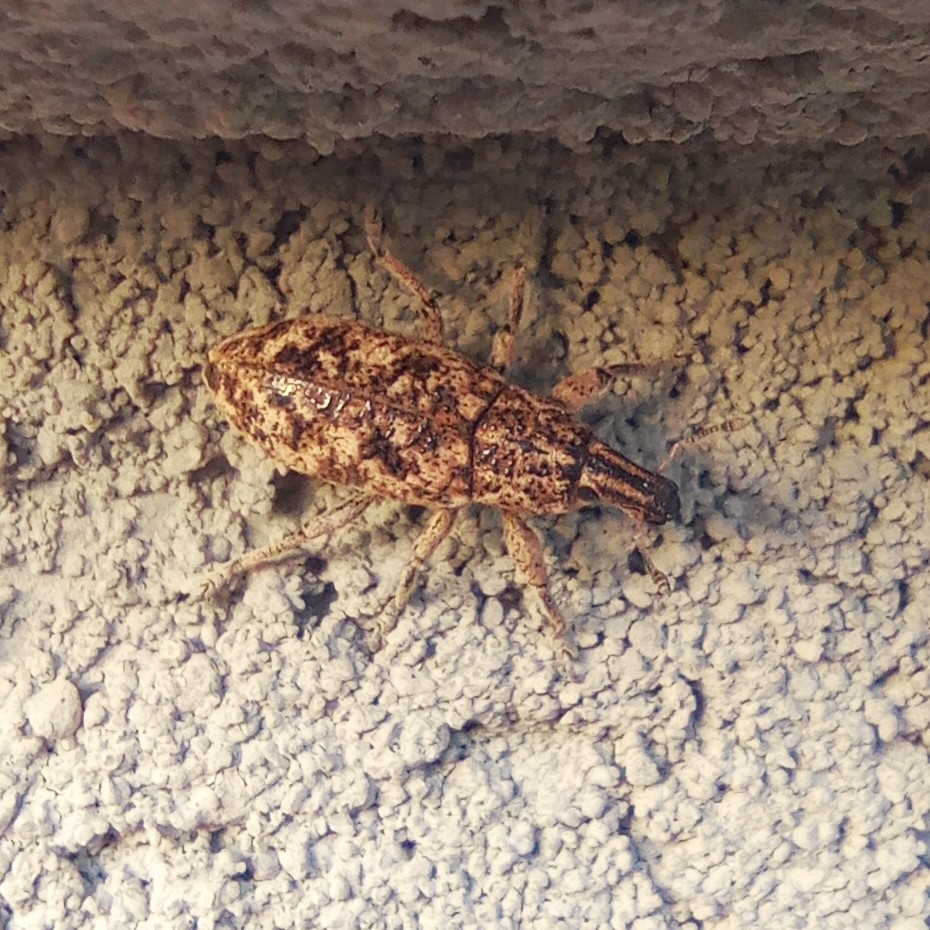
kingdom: Animalia
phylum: Arthropoda
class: Insecta
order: Coleoptera
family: Curculionidae
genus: Cyphocleonus
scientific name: Cyphocleonus dealbatus
